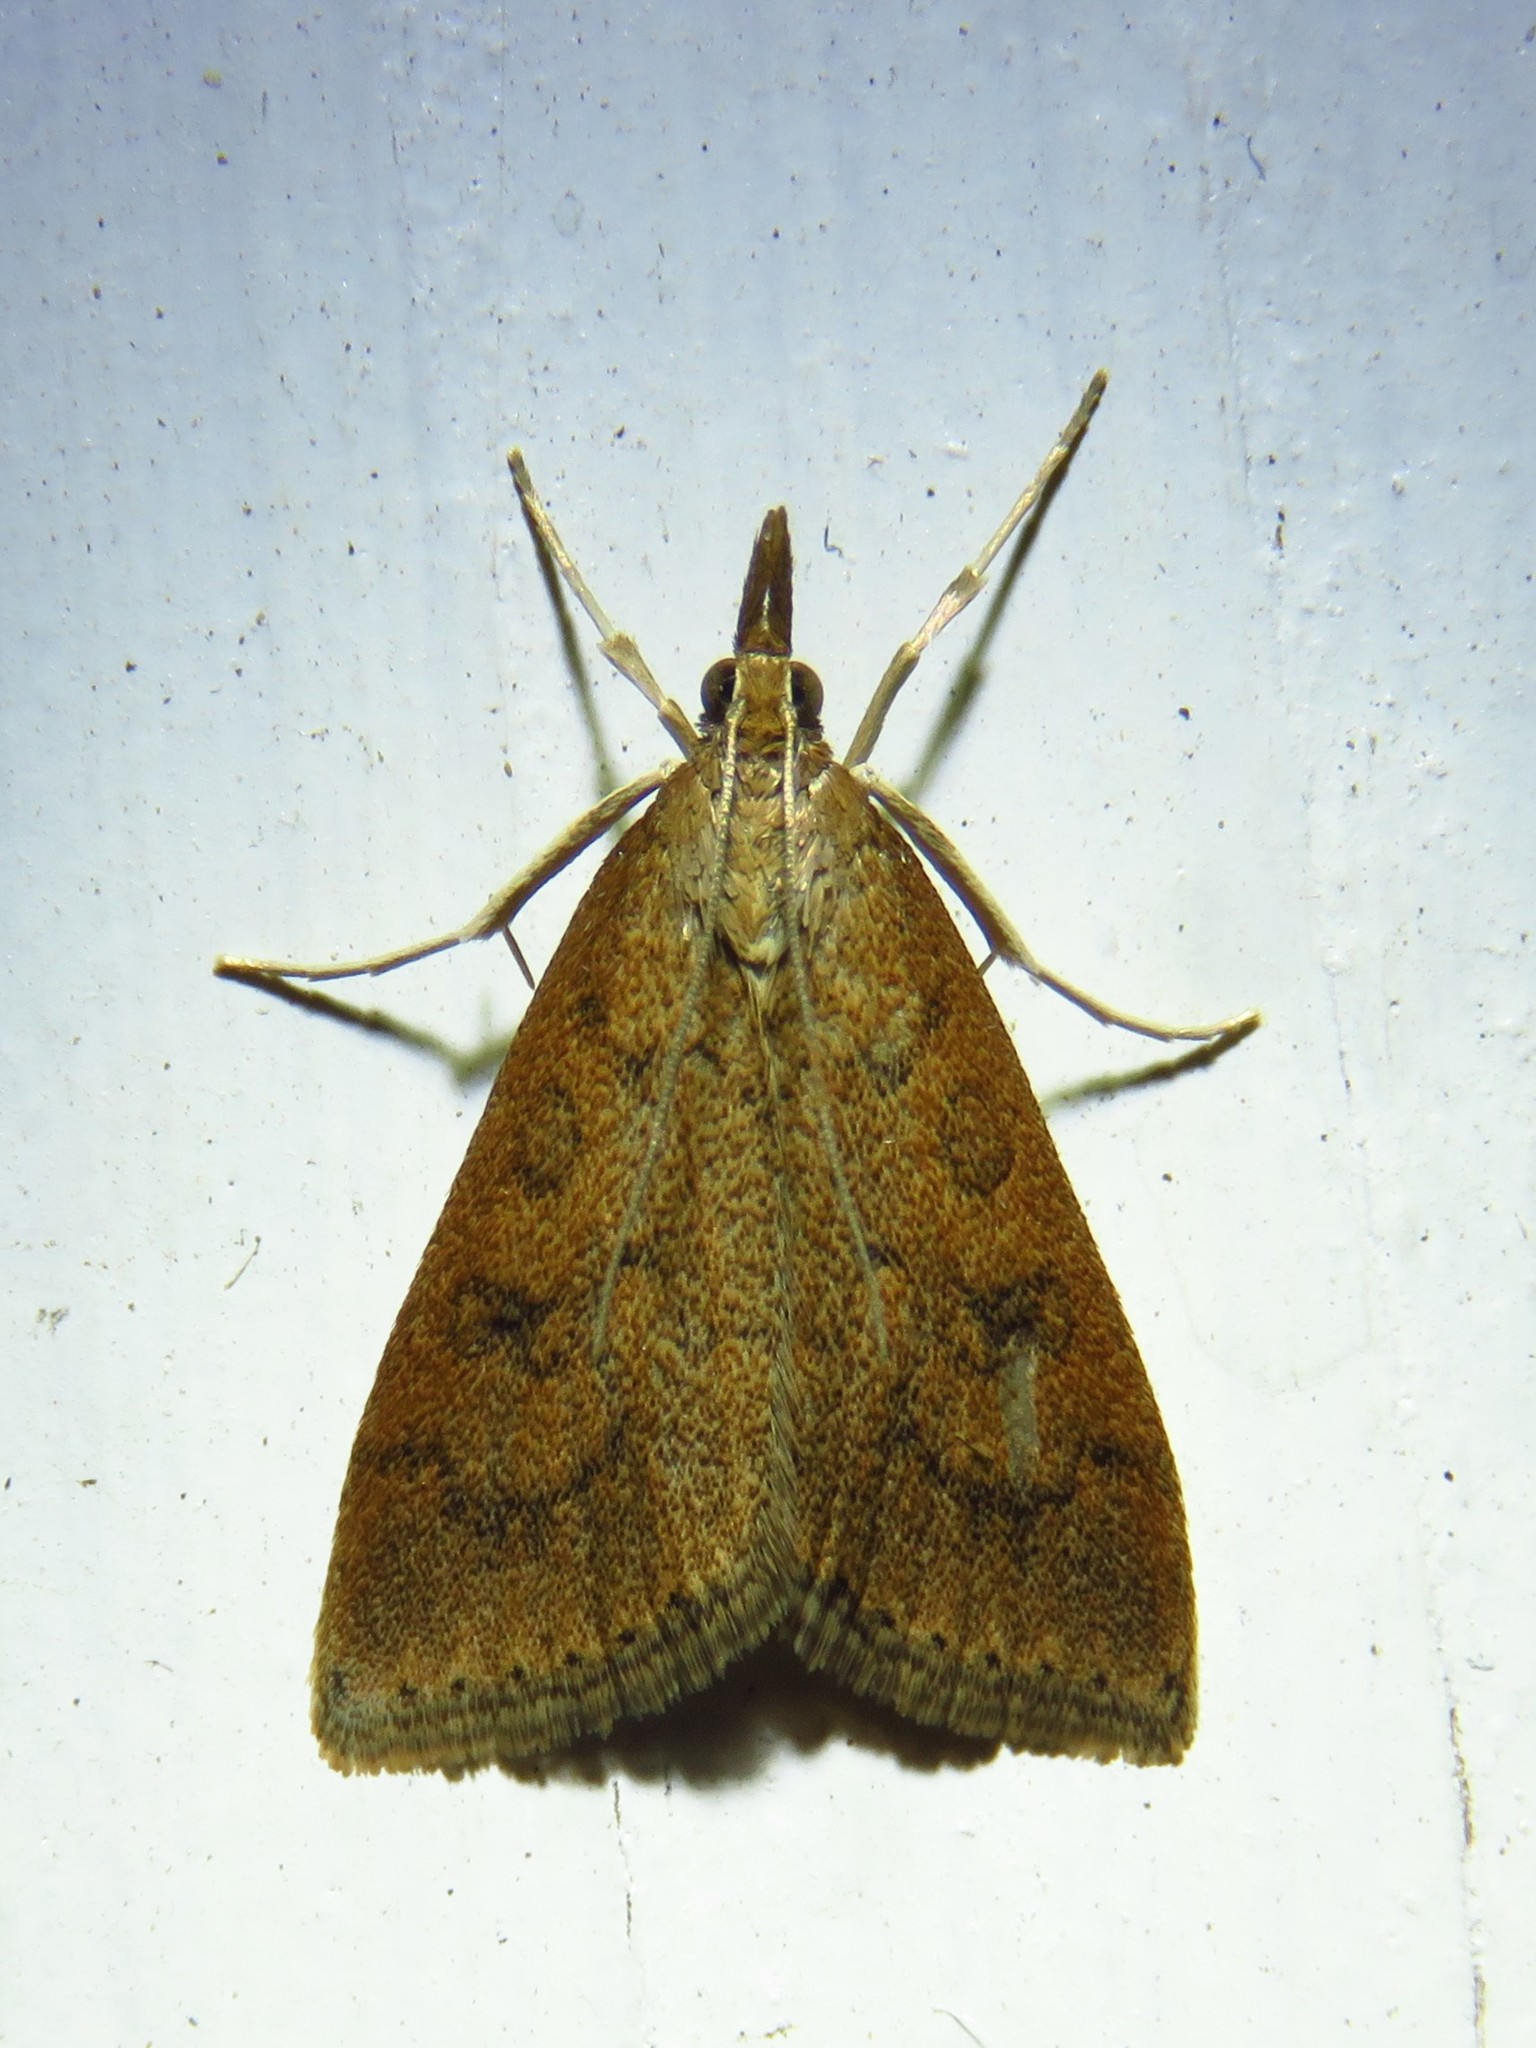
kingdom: Animalia
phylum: Arthropoda
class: Insecta
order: Lepidoptera
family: Crambidae
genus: Udea
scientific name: Udea rubigalis
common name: Celery leaftier moth
